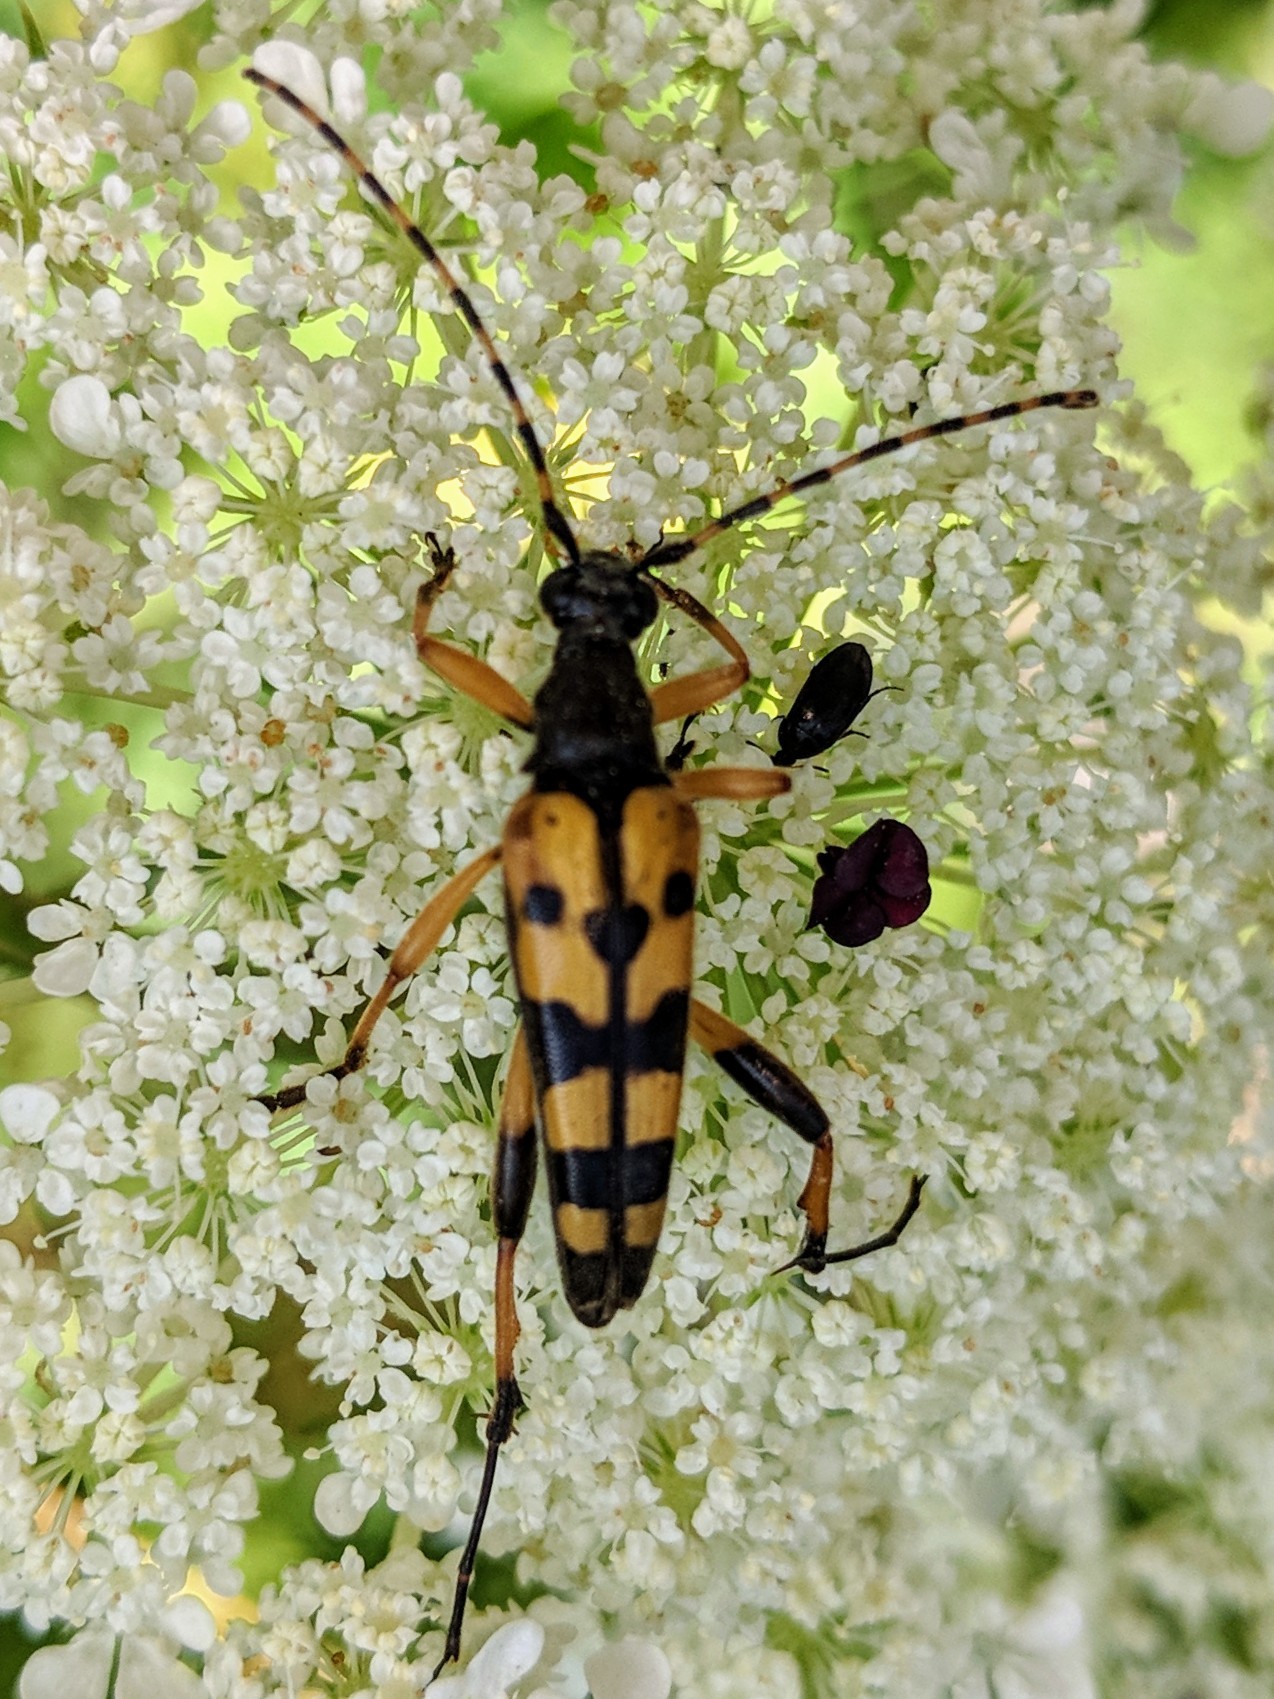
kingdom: Animalia
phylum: Arthropoda
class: Insecta
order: Coleoptera
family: Cerambycidae
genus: Rutpela
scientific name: Rutpela maculata
